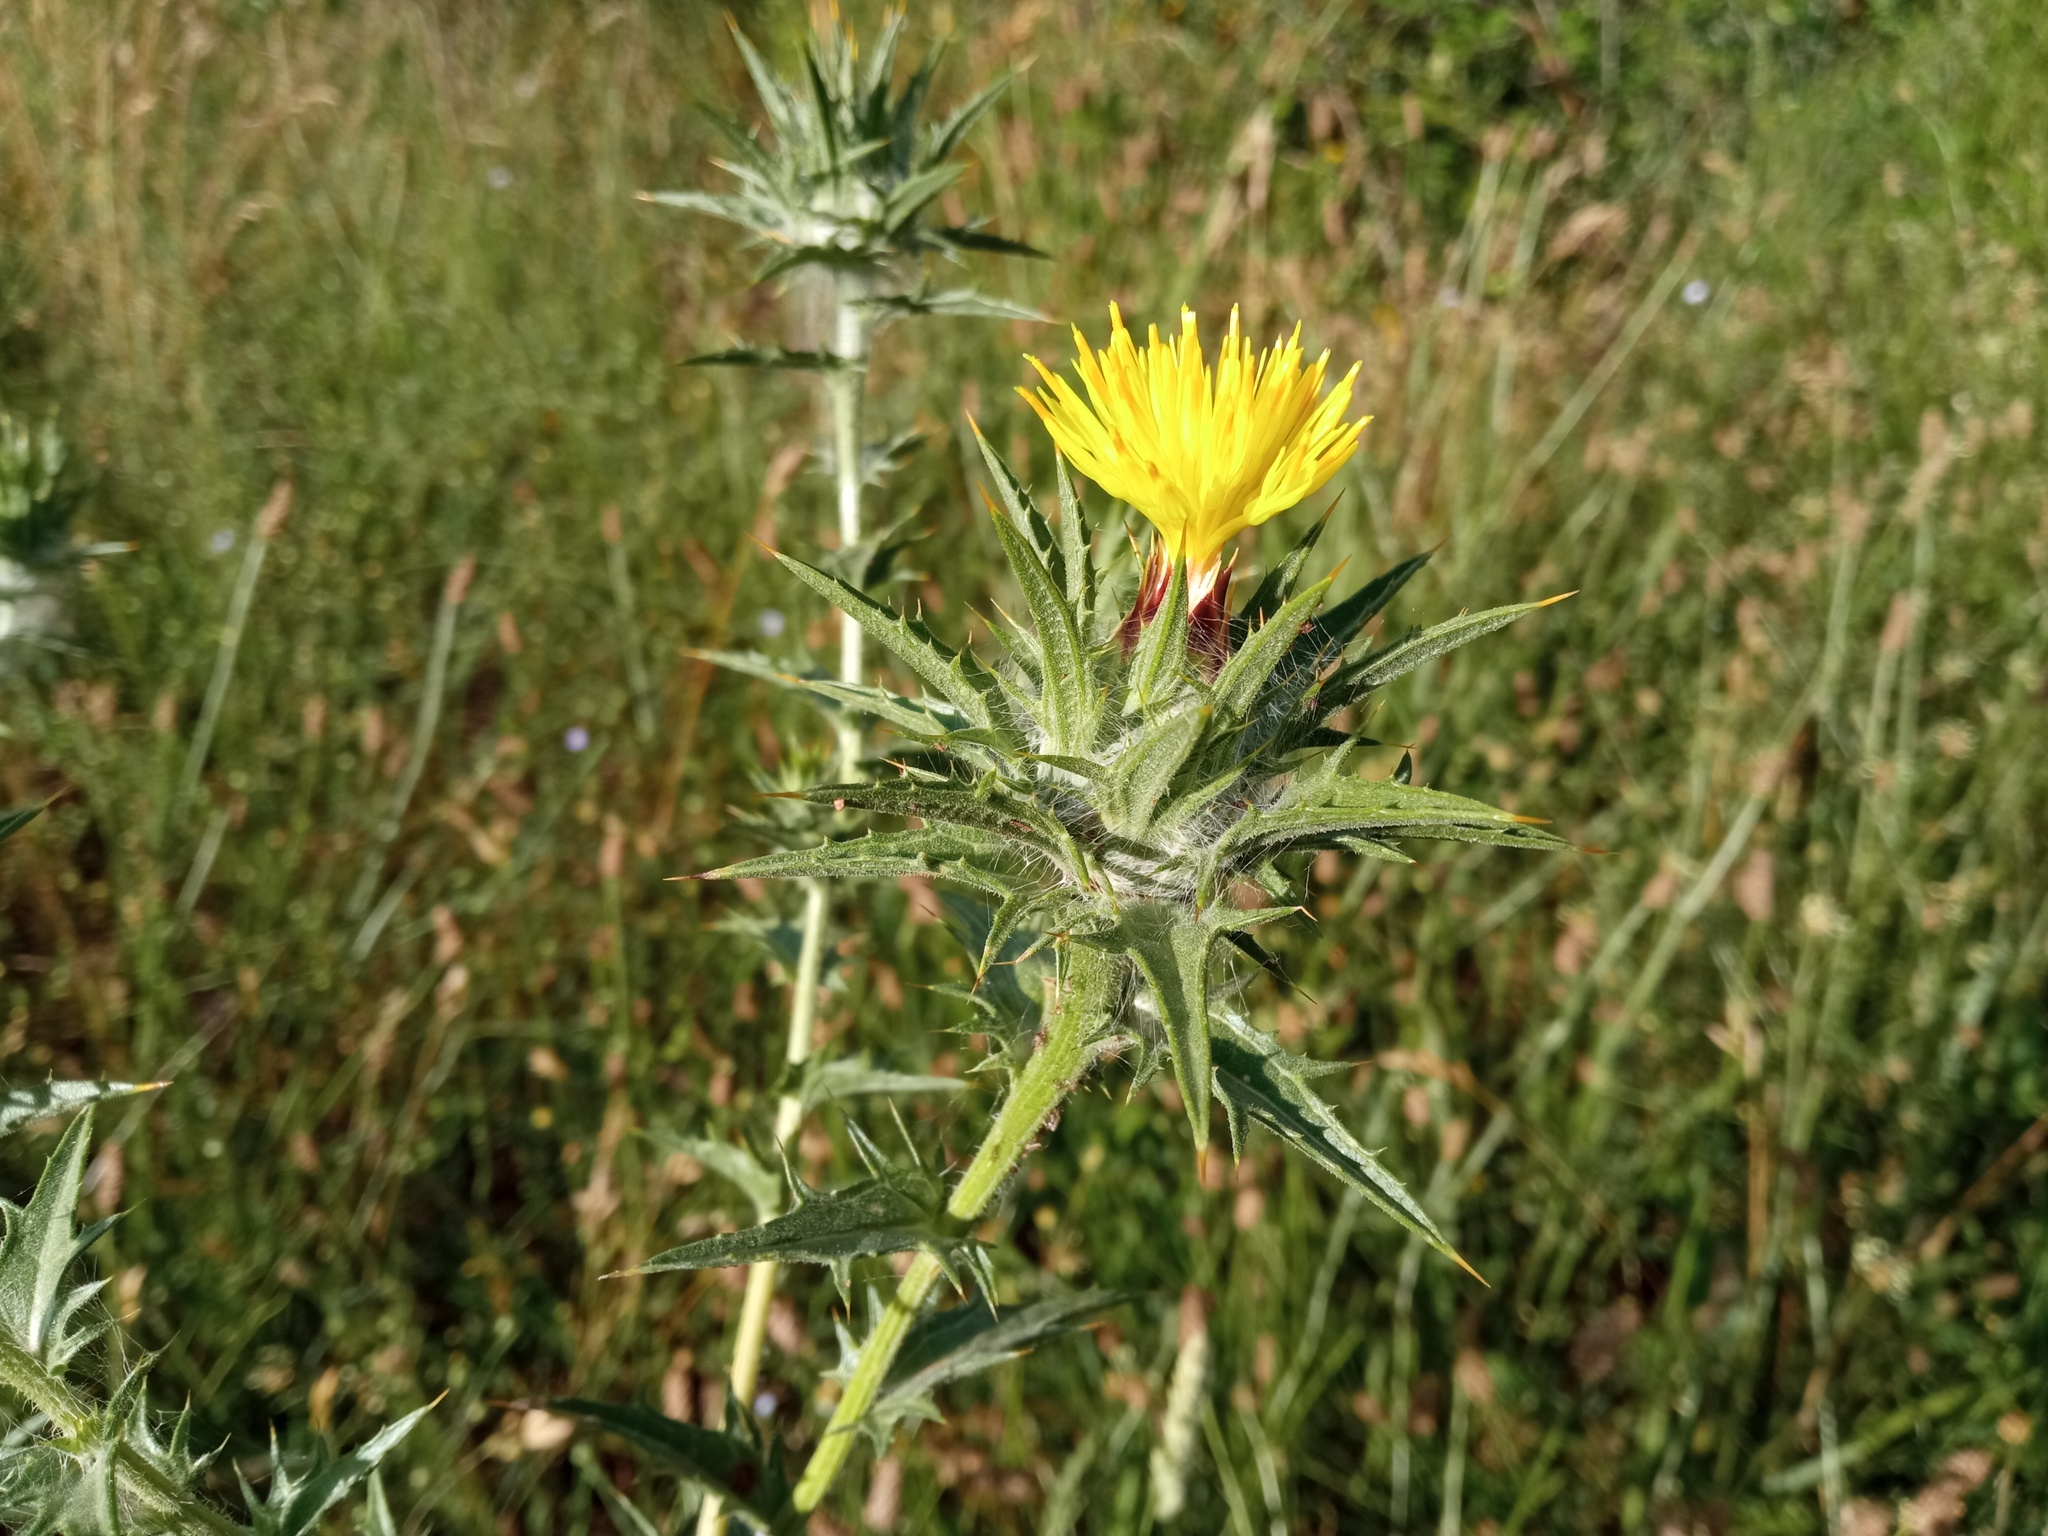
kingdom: Plantae
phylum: Tracheophyta
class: Magnoliopsida
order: Asterales
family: Asteraceae
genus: Carthamus
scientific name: Carthamus lanatus
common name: Downy safflower
